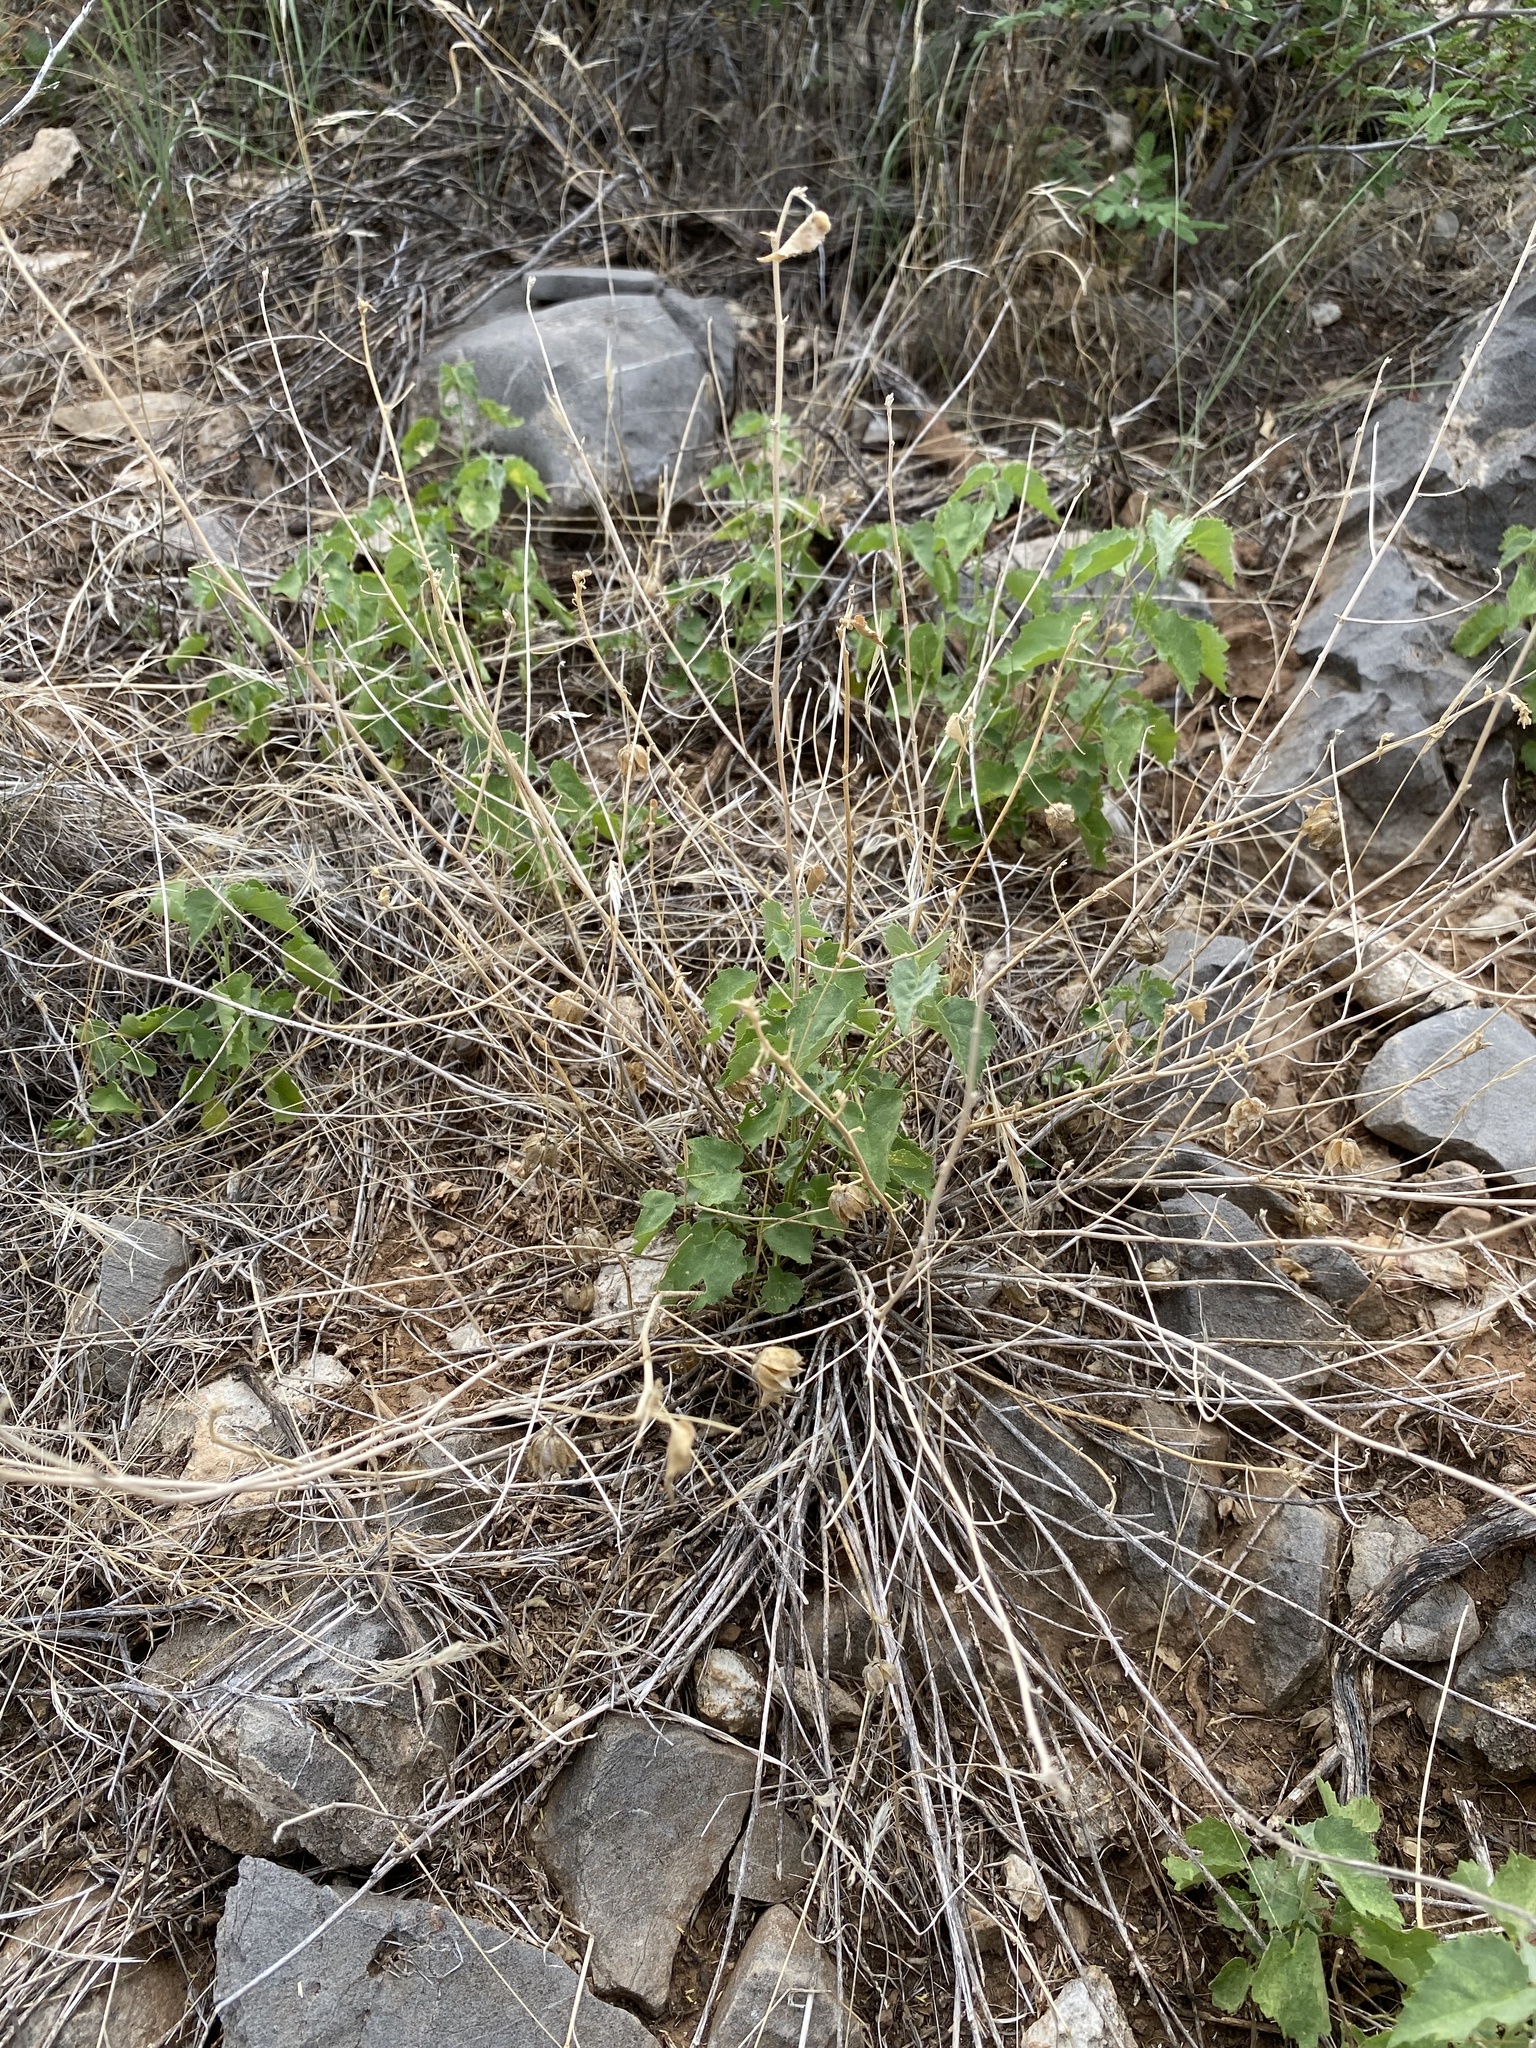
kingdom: Plantae
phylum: Tracheophyta
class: Magnoliopsida
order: Malvales
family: Malvaceae
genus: Abutilon
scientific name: Abutilon parvulum
